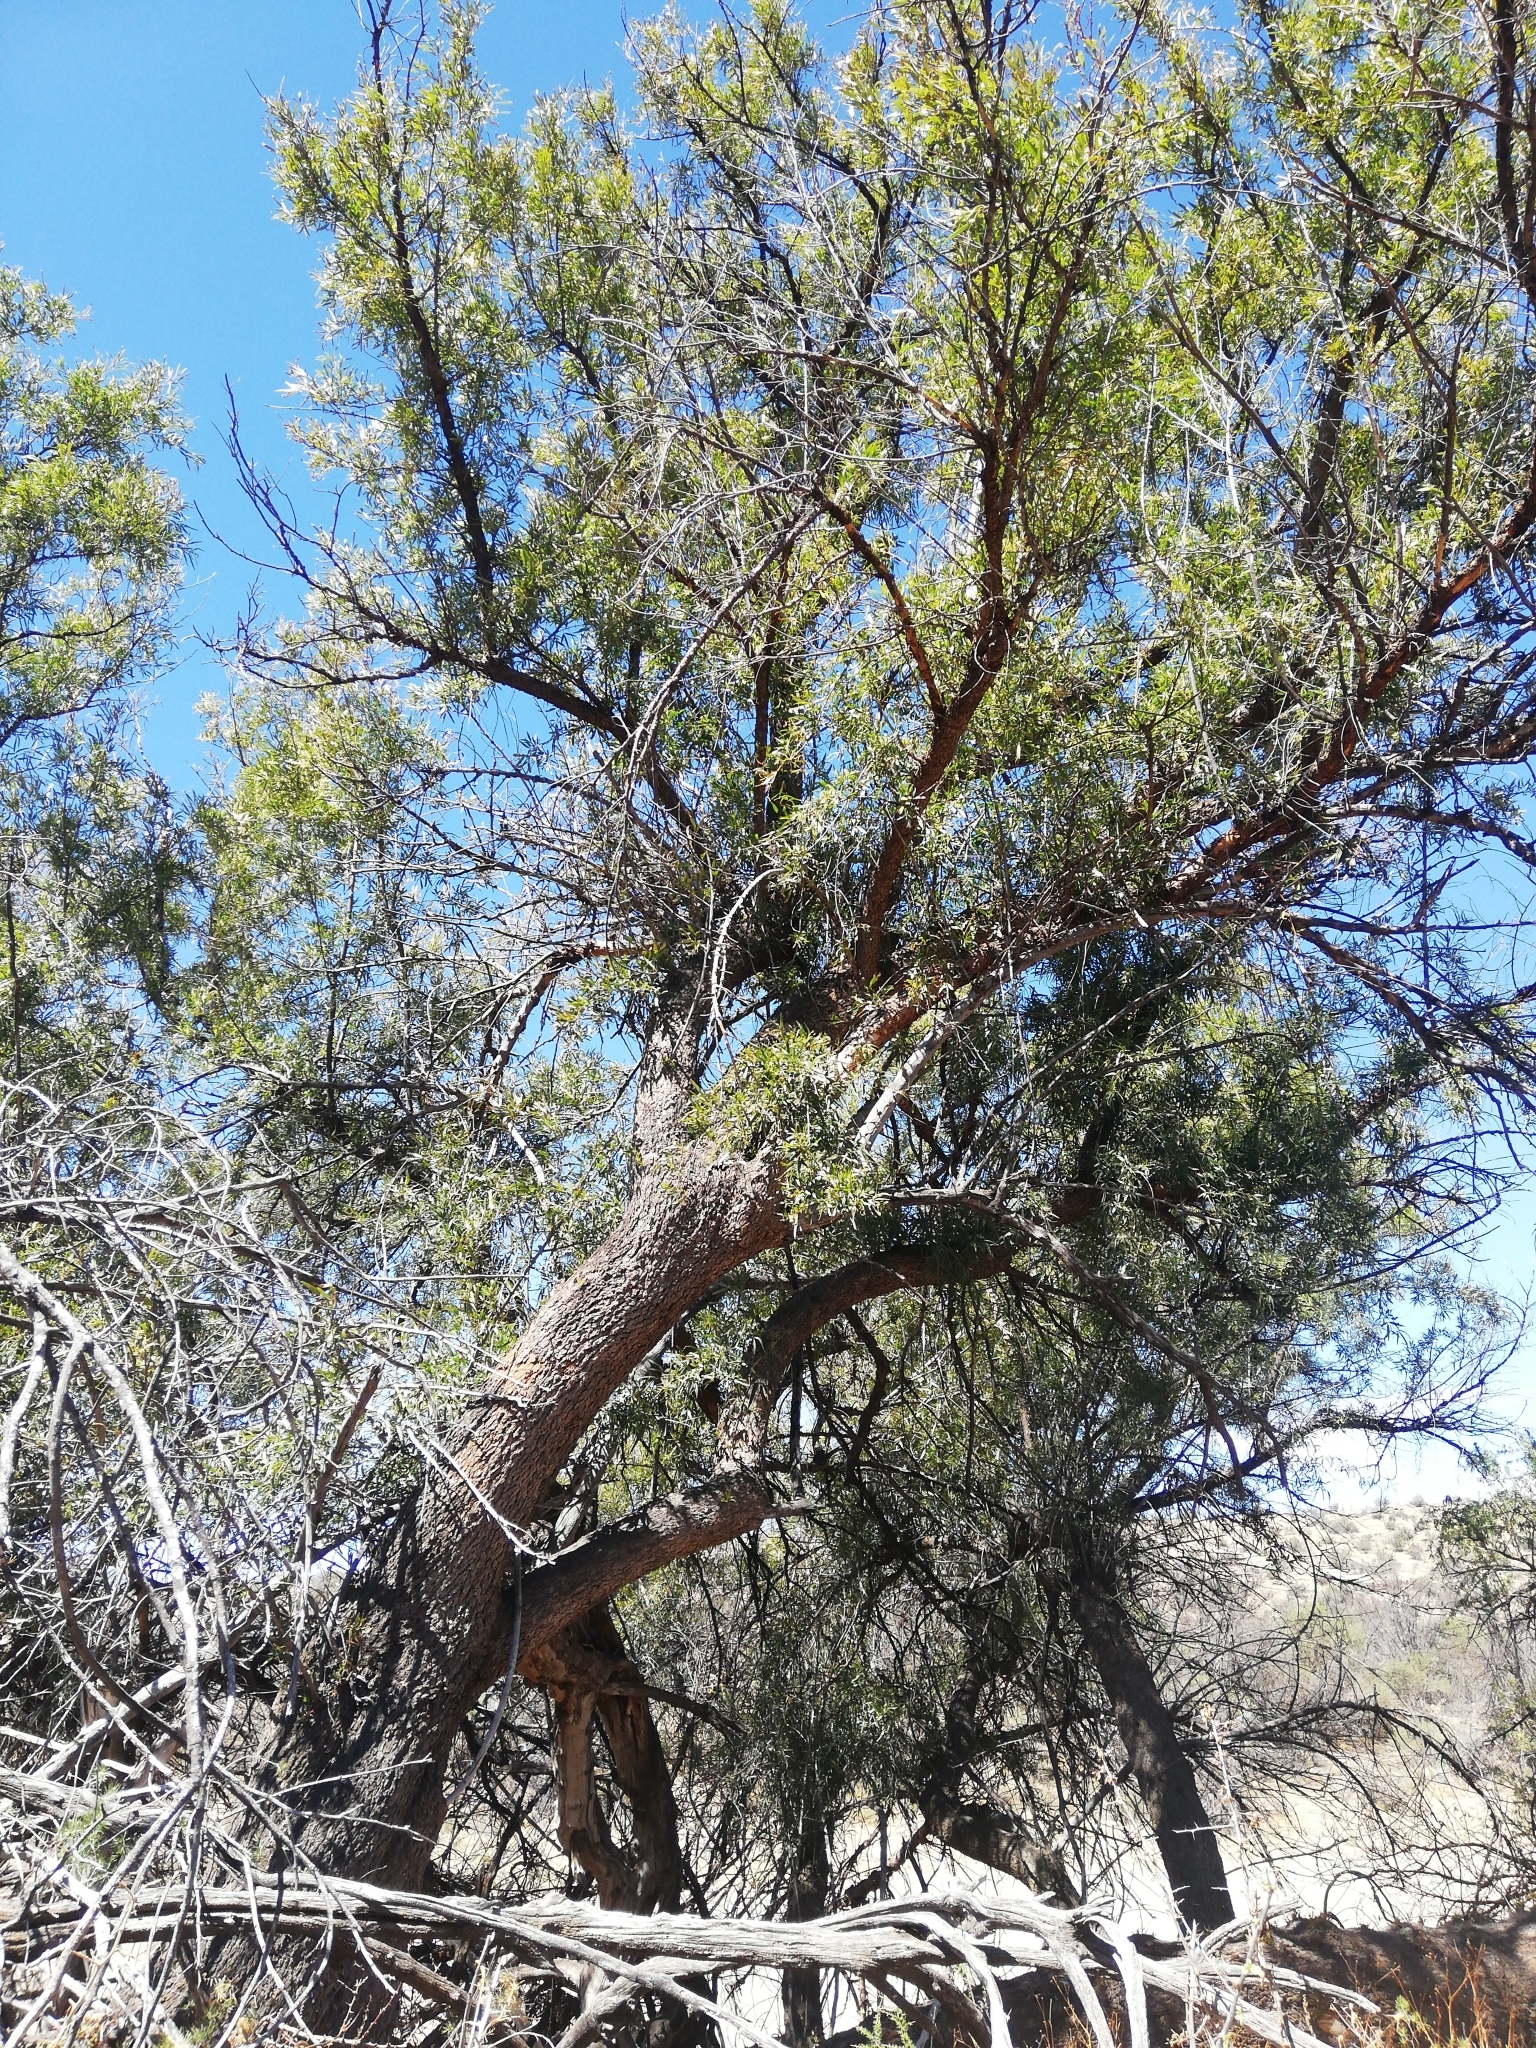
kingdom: Plantae
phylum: Tracheophyta
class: Magnoliopsida
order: Sapindales
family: Anacardiaceae
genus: Searsia
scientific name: Searsia lancea
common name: Cashew
